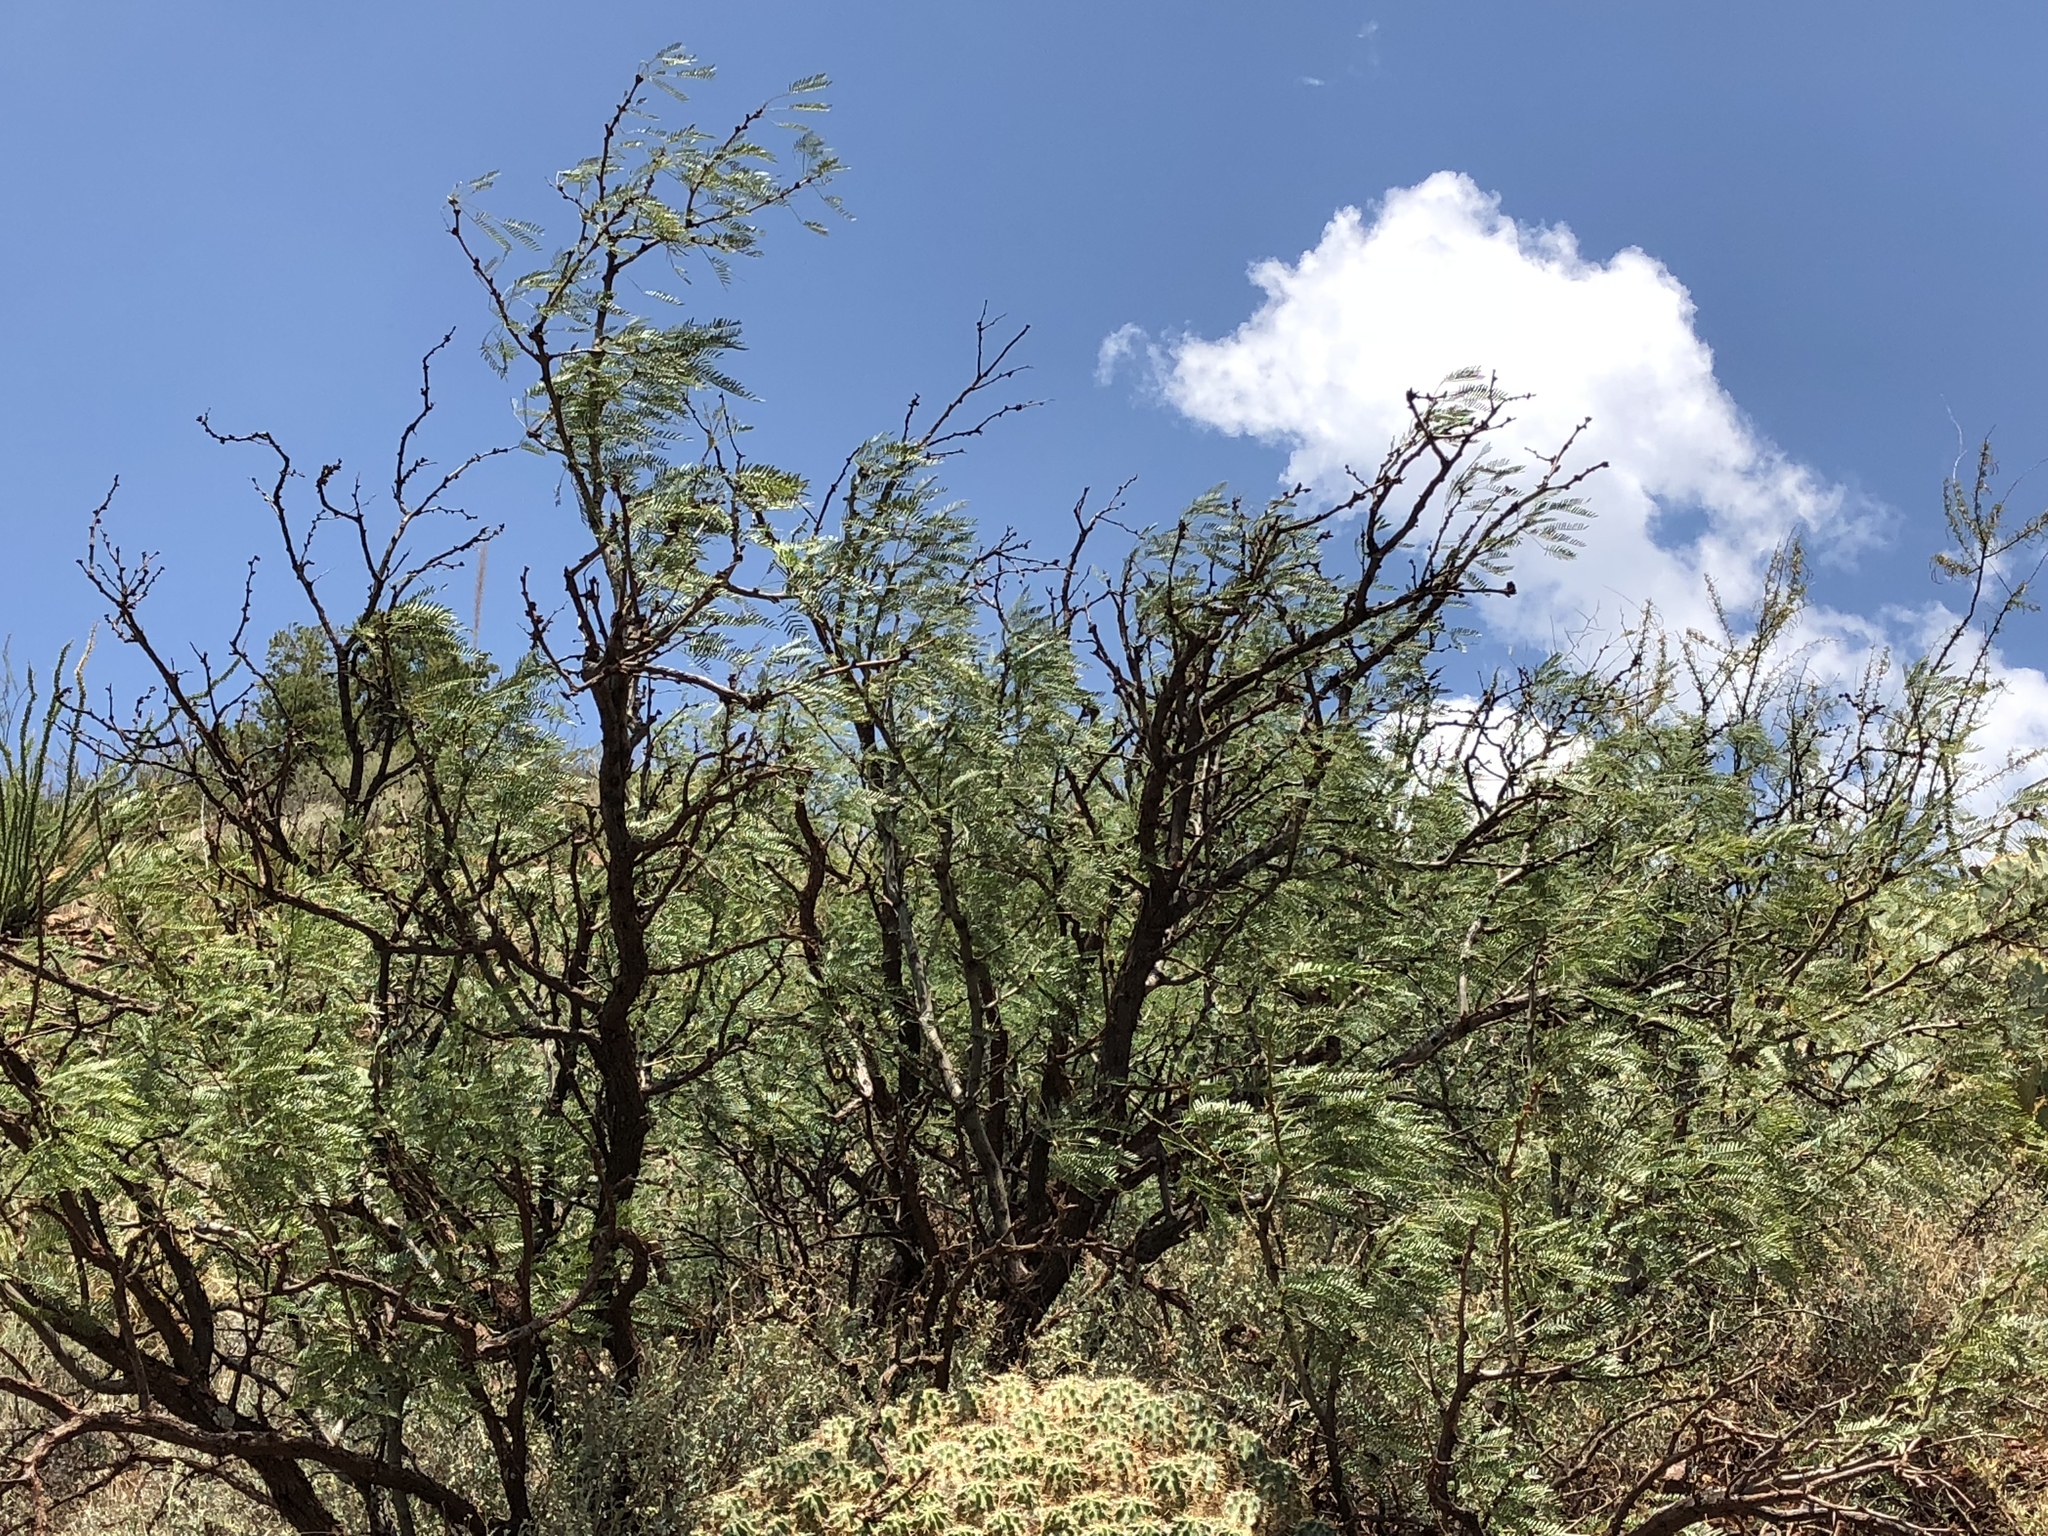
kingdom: Plantae
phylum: Tracheophyta
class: Magnoliopsida
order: Fabales
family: Fabaceae
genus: Prosopis
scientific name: Prosopis glandulosa
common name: Honey mesquite
